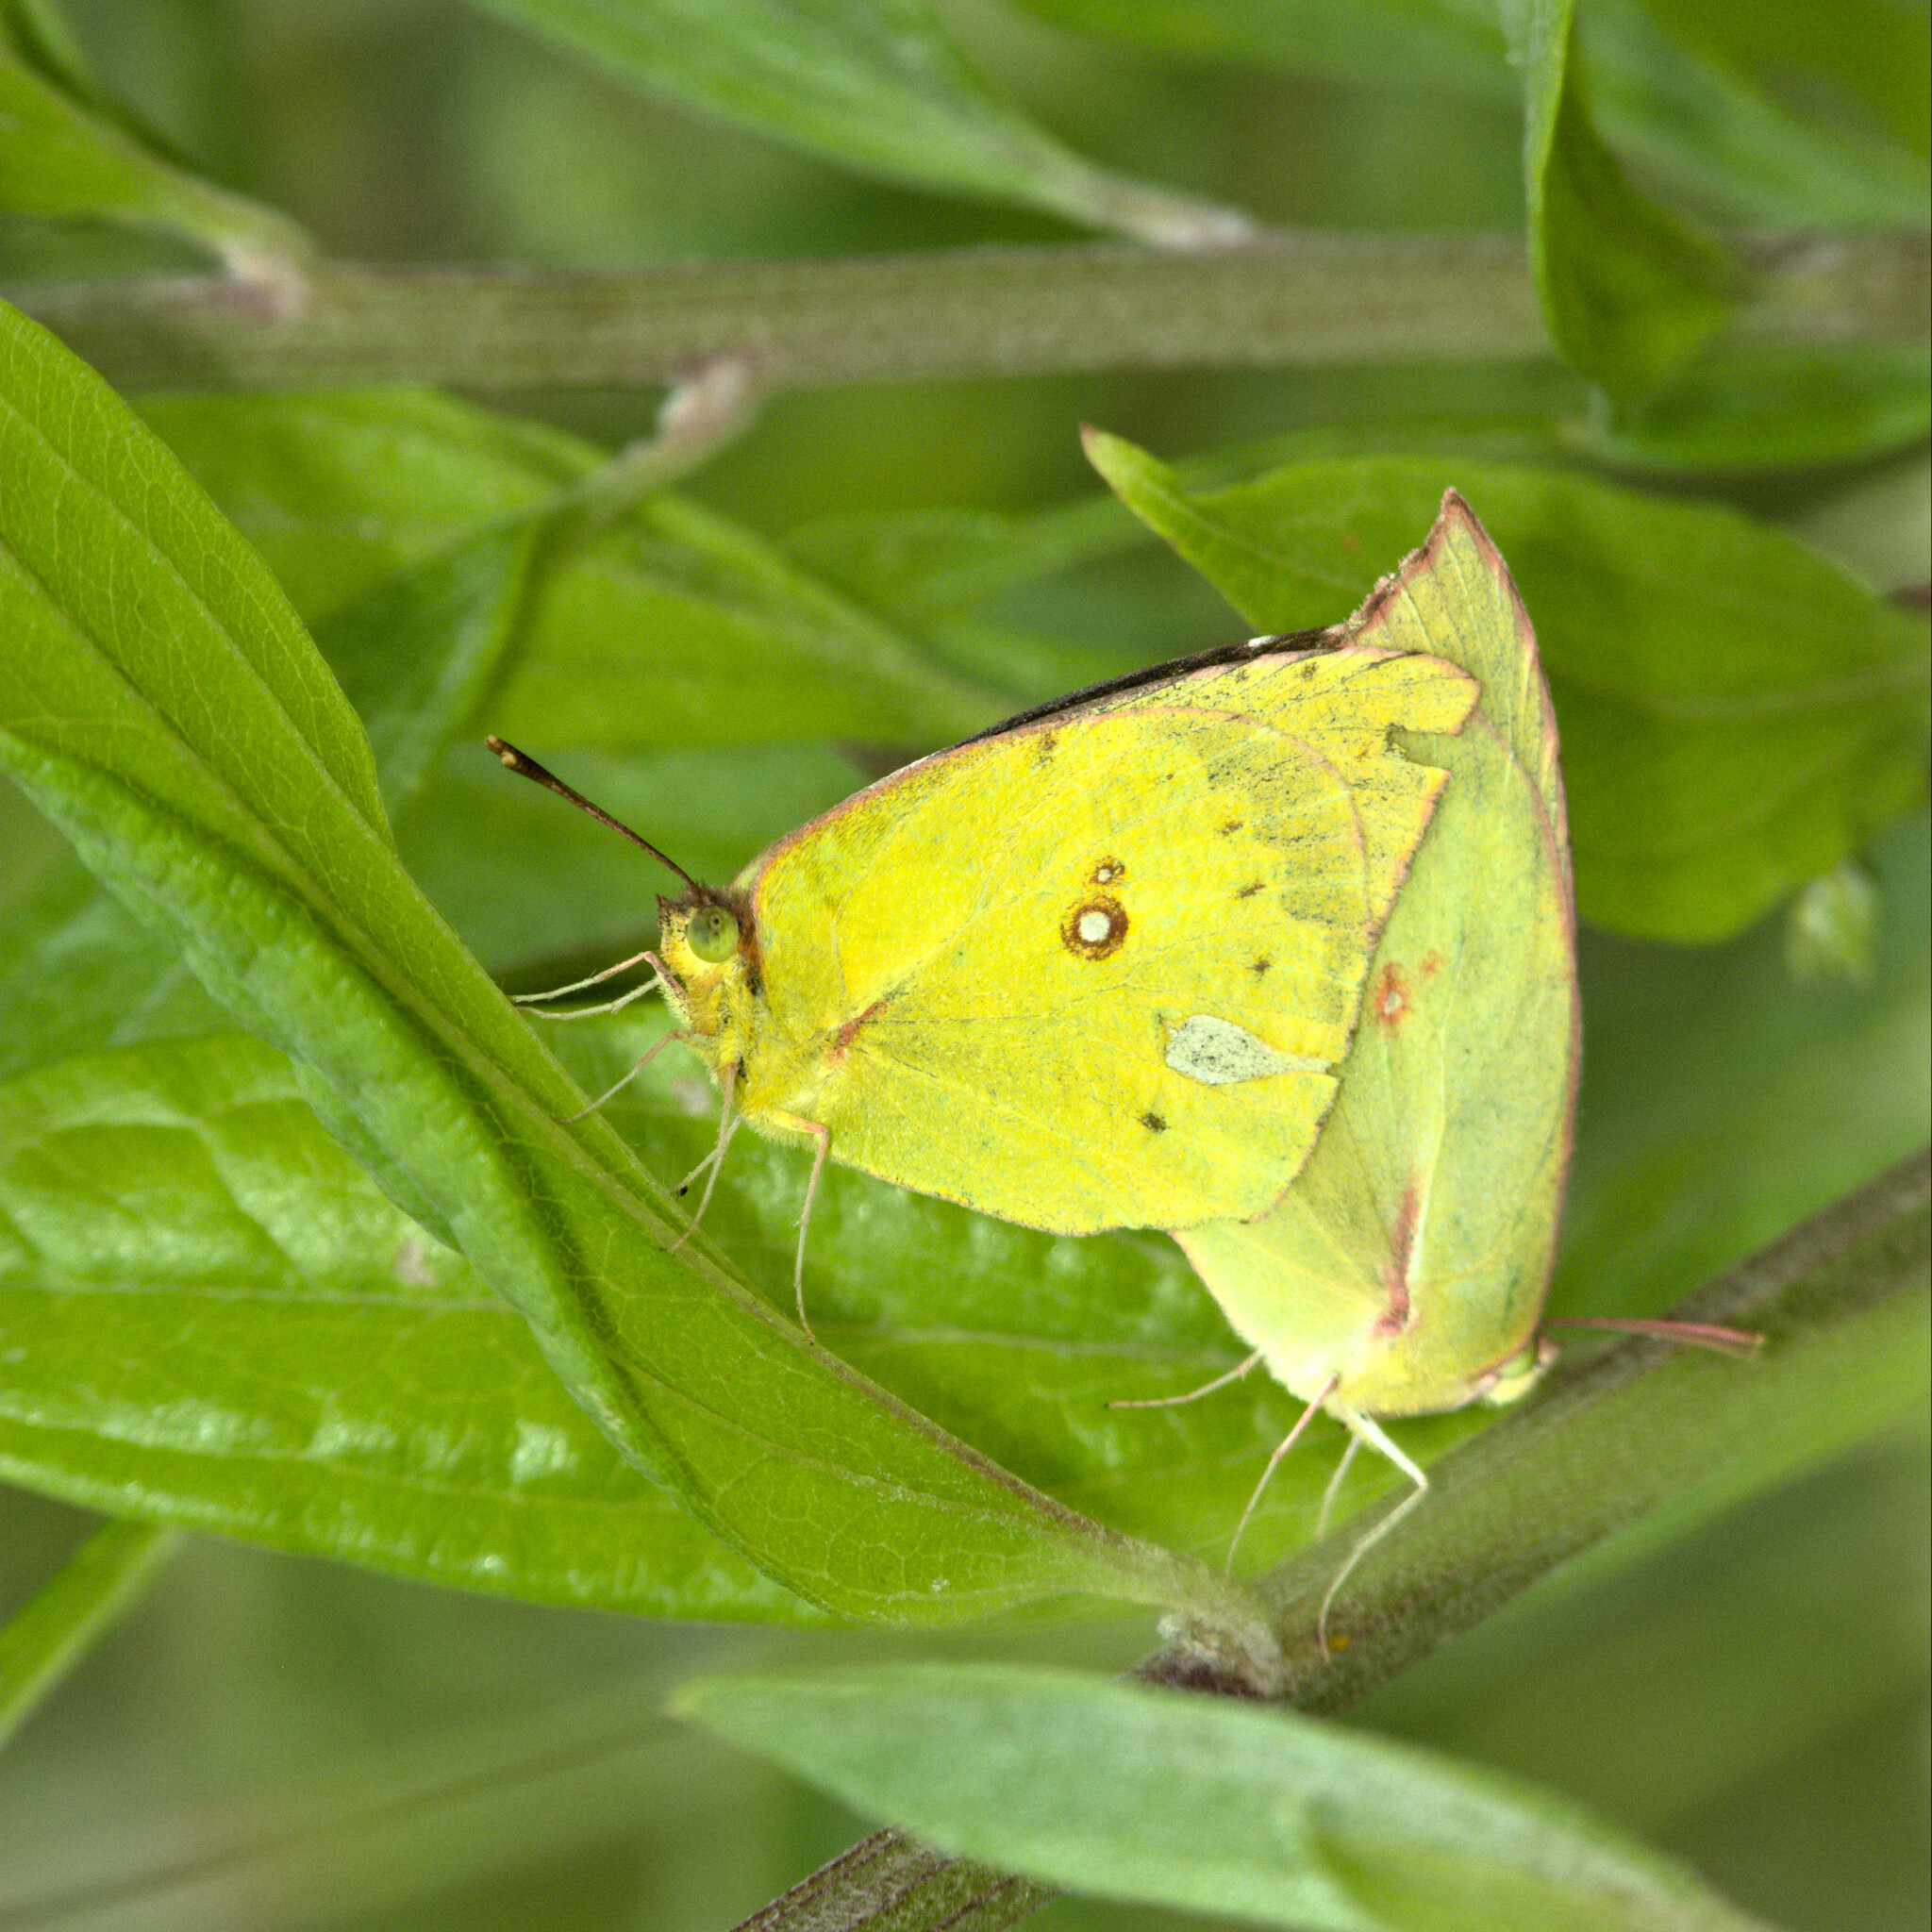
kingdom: Animalia
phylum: Arthropoda
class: Insecta
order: Lepidoptera
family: Pieridae
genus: Zerene
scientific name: Zerene cesonia
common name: Southern dogface
